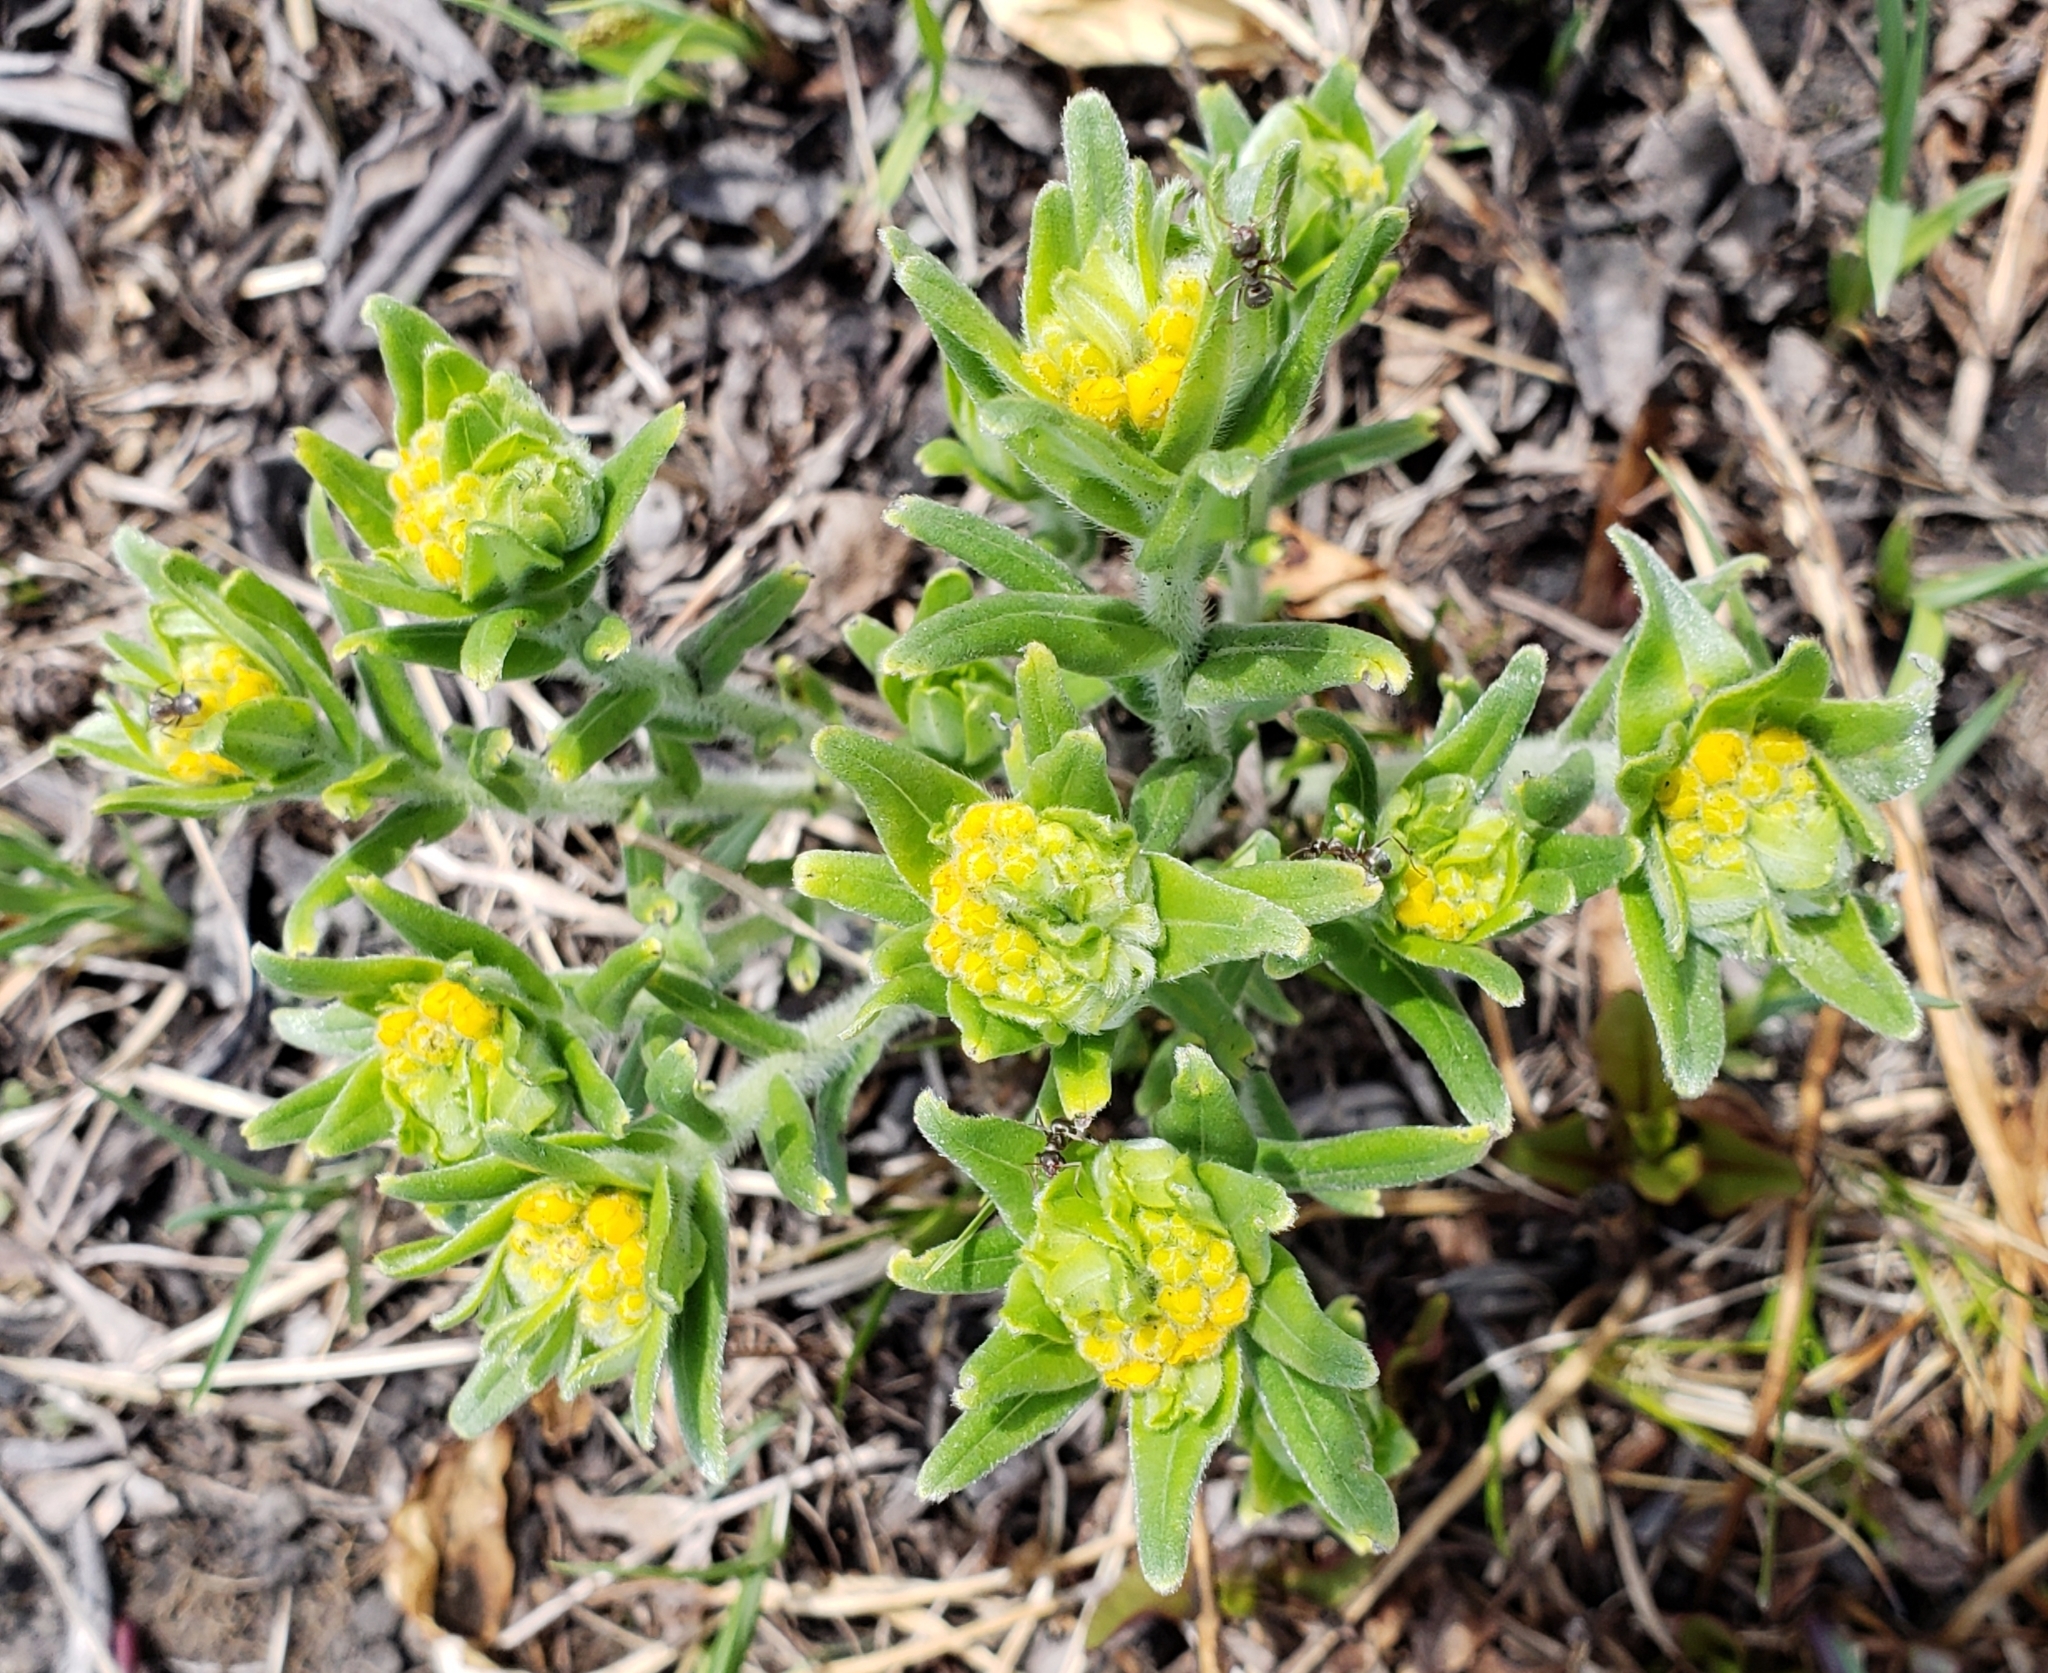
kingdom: Plantae
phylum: Tracheophyta
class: Magnoliopsida
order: Boraginales
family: Boraginaceae
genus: Lithospermum
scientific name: Lithospermum canescens
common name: Hoary puccoon
